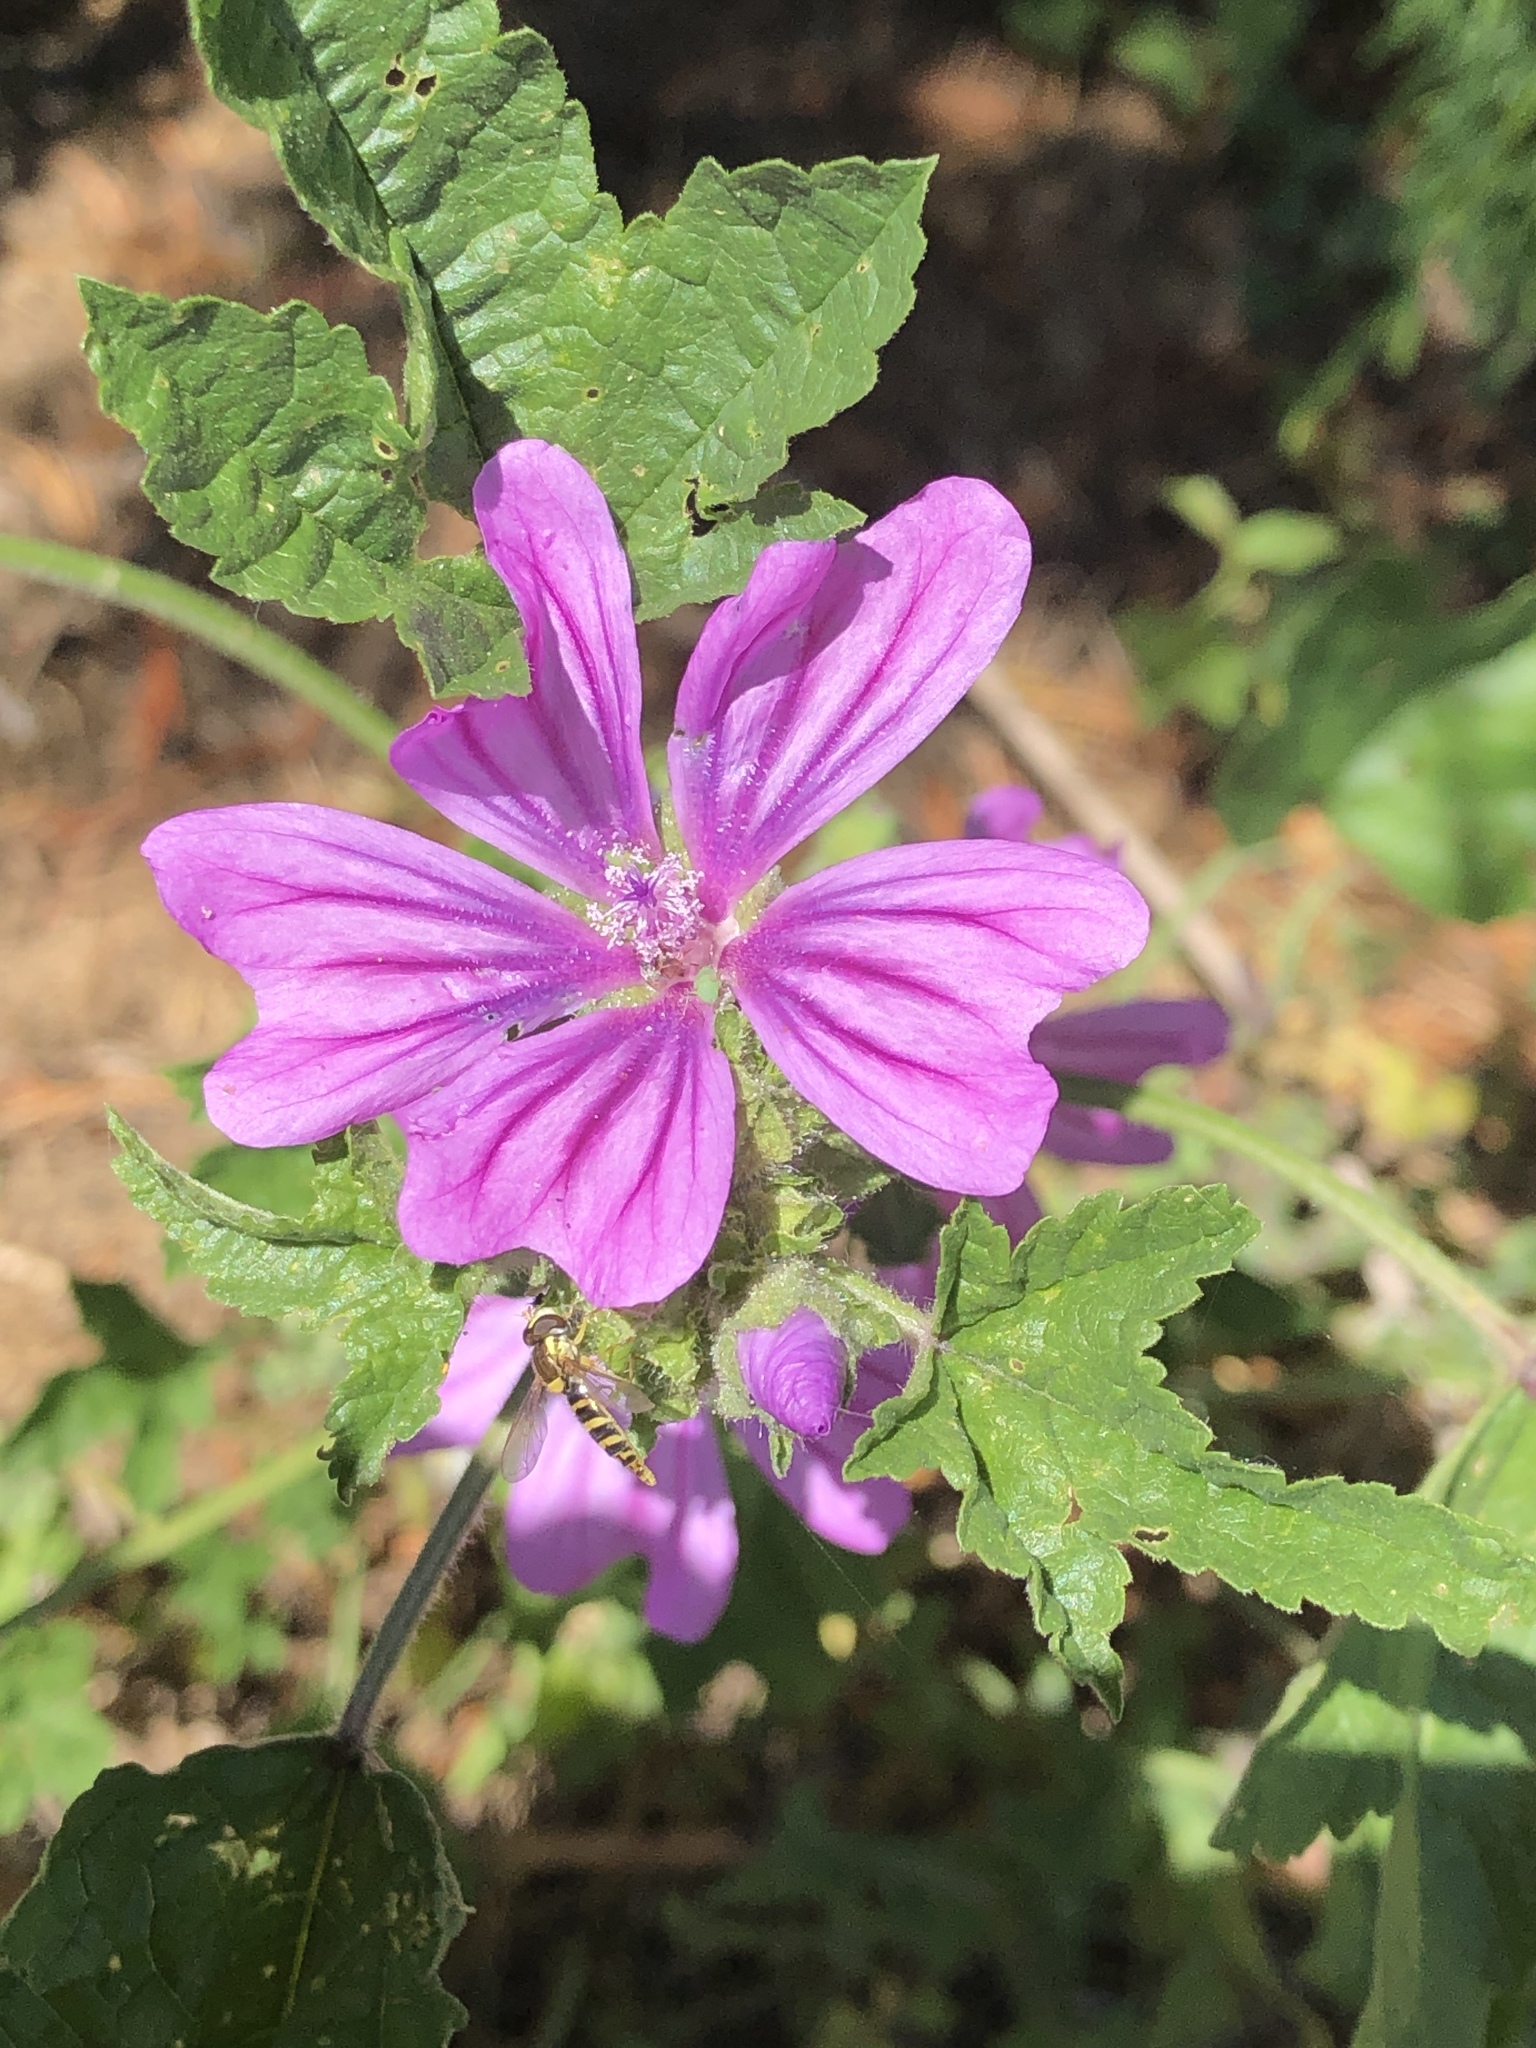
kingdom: Plantae
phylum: Tracheophyta
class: Magnoliopsida
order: Malvales
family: Malvaceae
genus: Malva
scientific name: Malva sylvestris
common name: Common mallow
